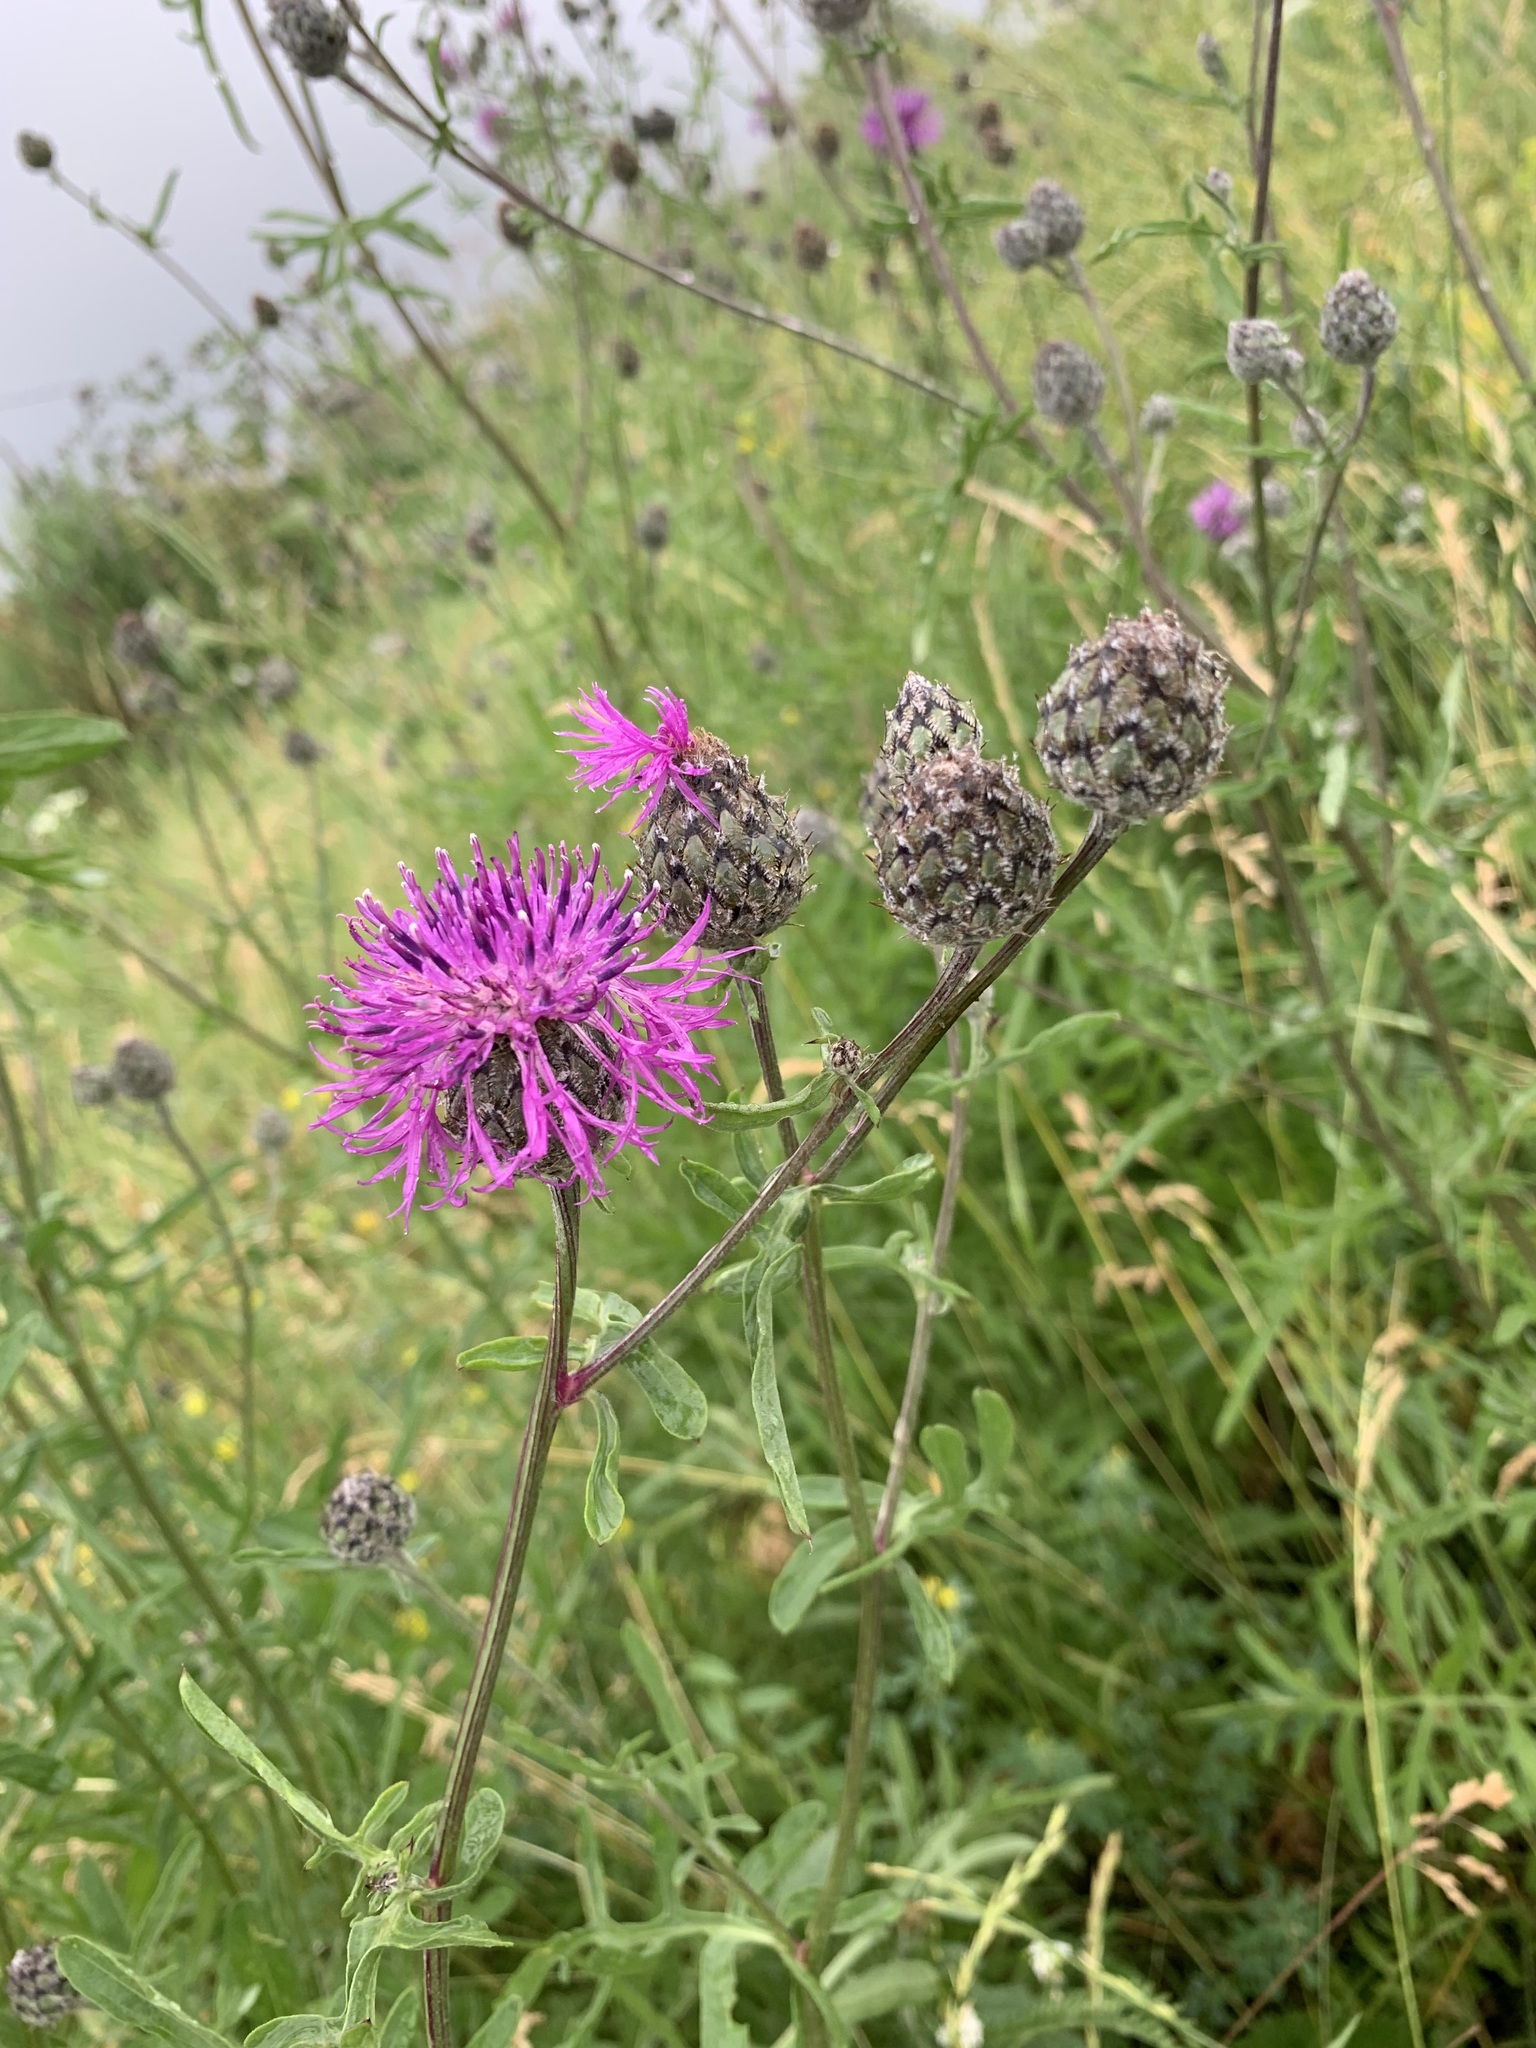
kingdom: Plantae
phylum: Tracheophyta
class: Magnoliopsida
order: Asterales
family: Asteraceae
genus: Centaurea
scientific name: Centaurea scabiosa
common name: Greater knapweed
